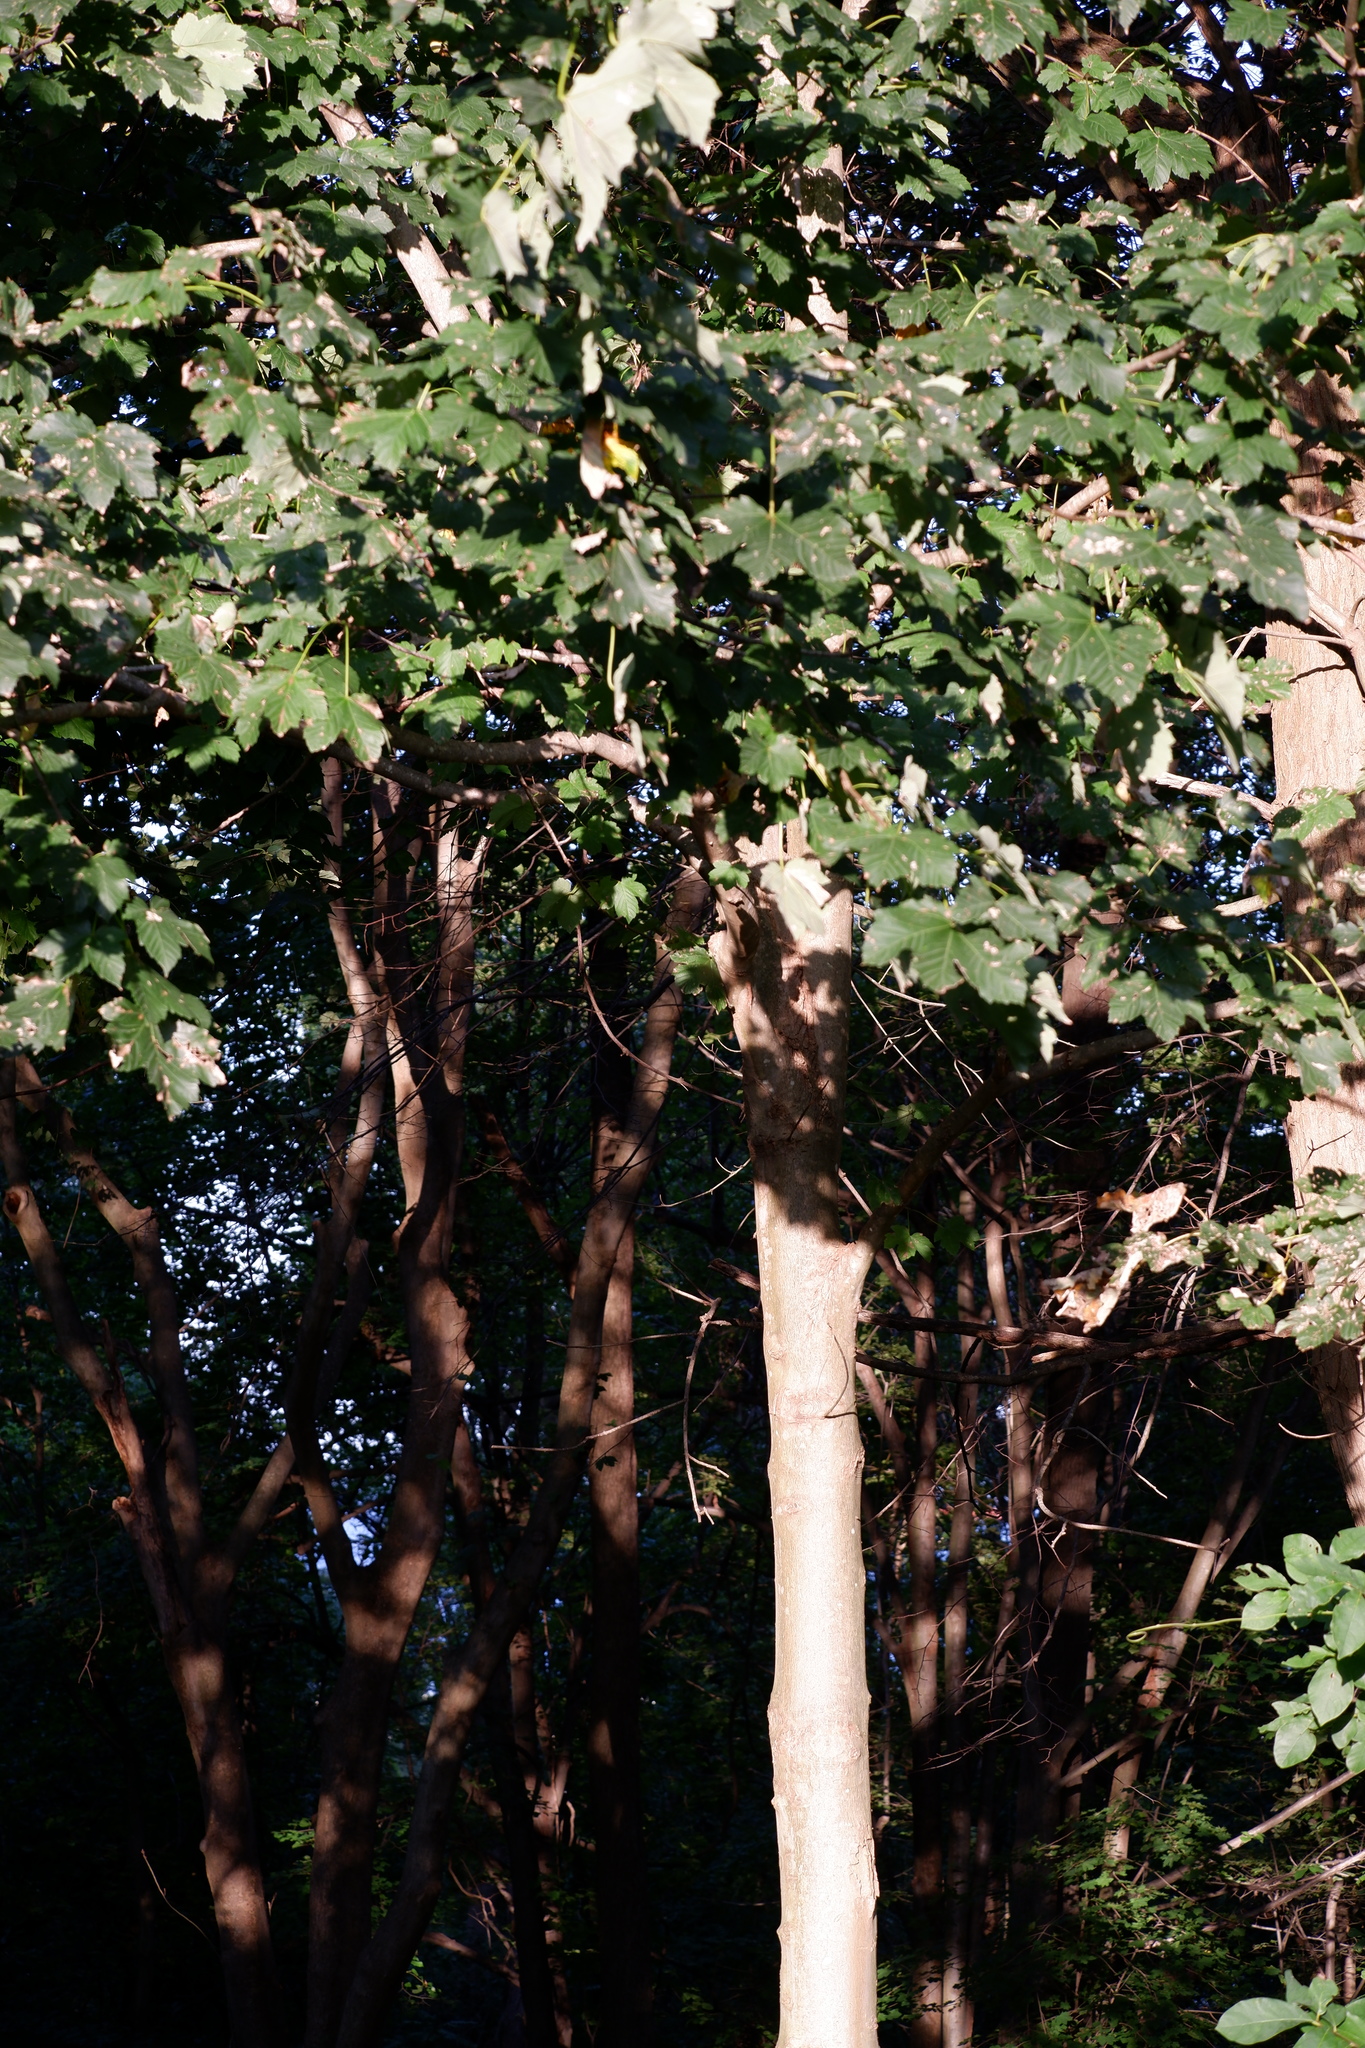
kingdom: Plantae
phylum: Tracheophyta
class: Magnoliopsida
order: Sapindales
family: Sapindaceae
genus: Acer
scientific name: Acer pseudoplatanus
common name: Sycamore
